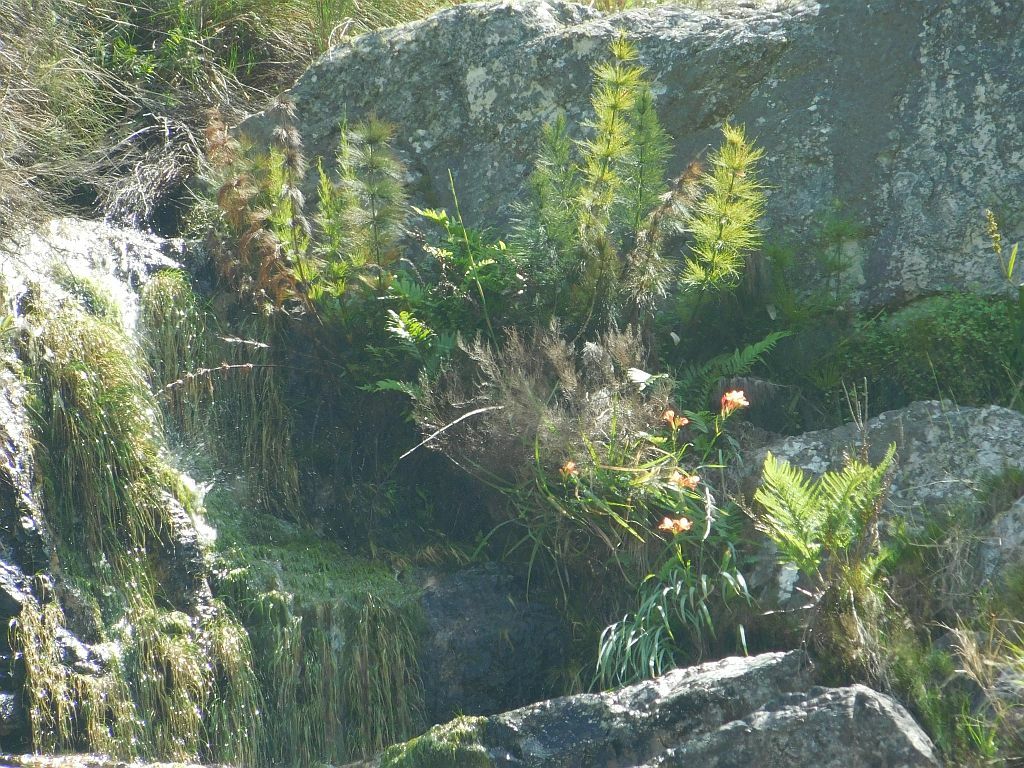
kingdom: Plantae
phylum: Tracheophyta
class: Liliopsida
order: Asparagales
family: Iridaceae
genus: Gladiolus
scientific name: Gladiolus cardinalis
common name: New year-lily
